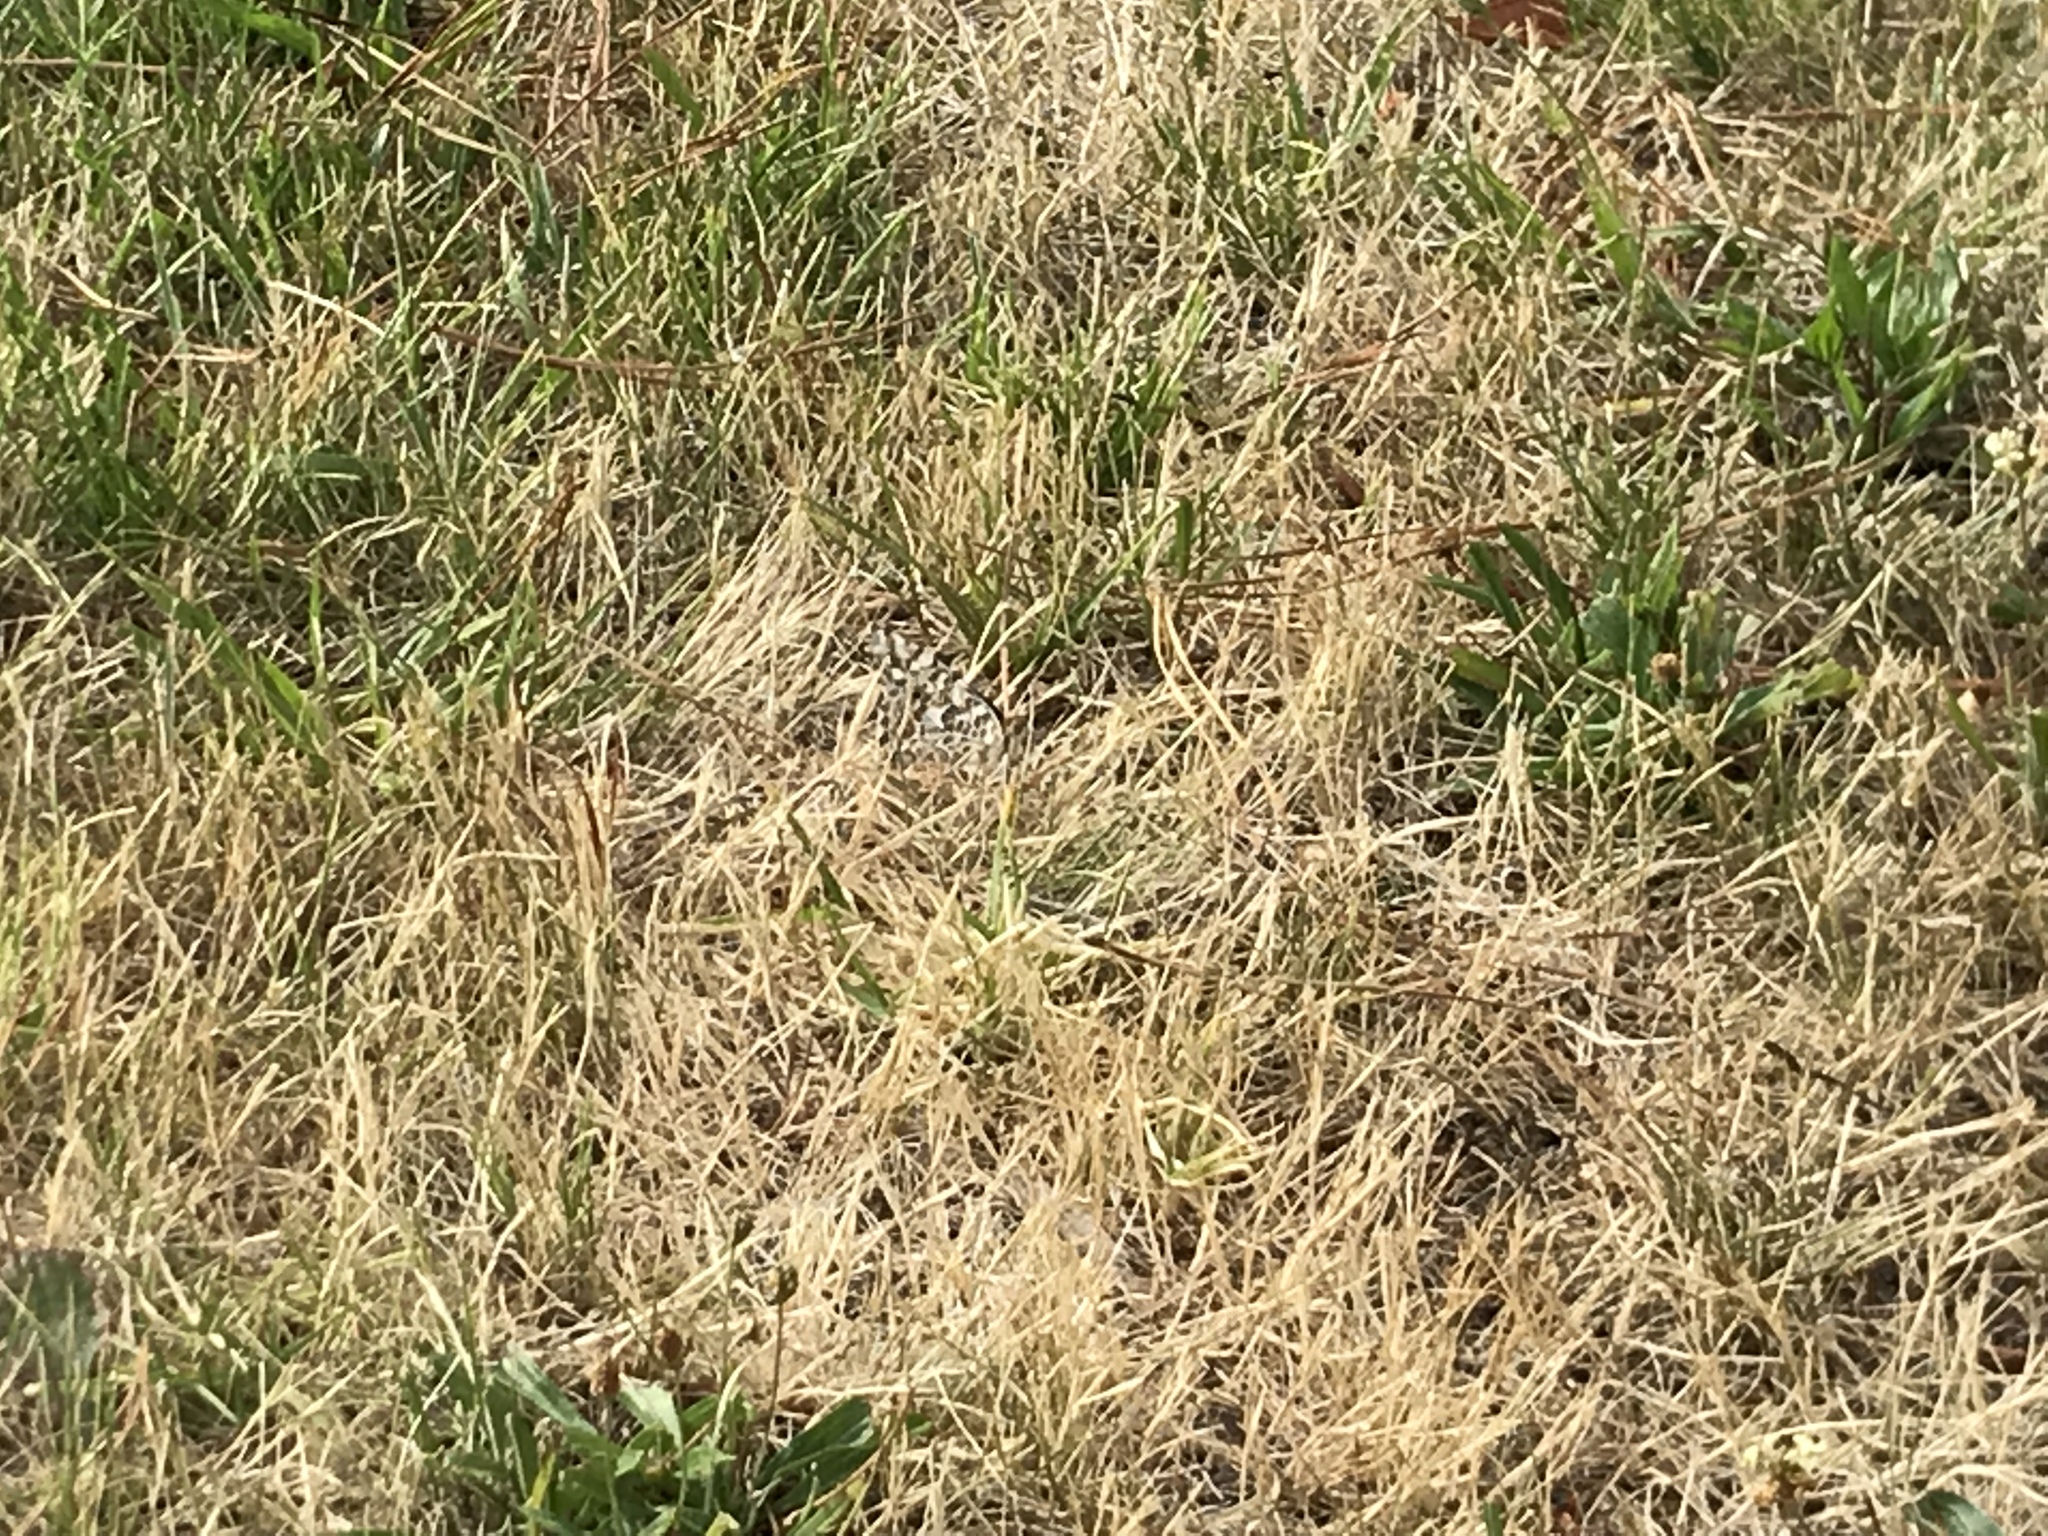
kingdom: Animalia
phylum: Arthropoda
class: Insecta
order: Lepidoptera
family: Nymphalidae
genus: Vanessa
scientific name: Vanessa cardui
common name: Painted lady
